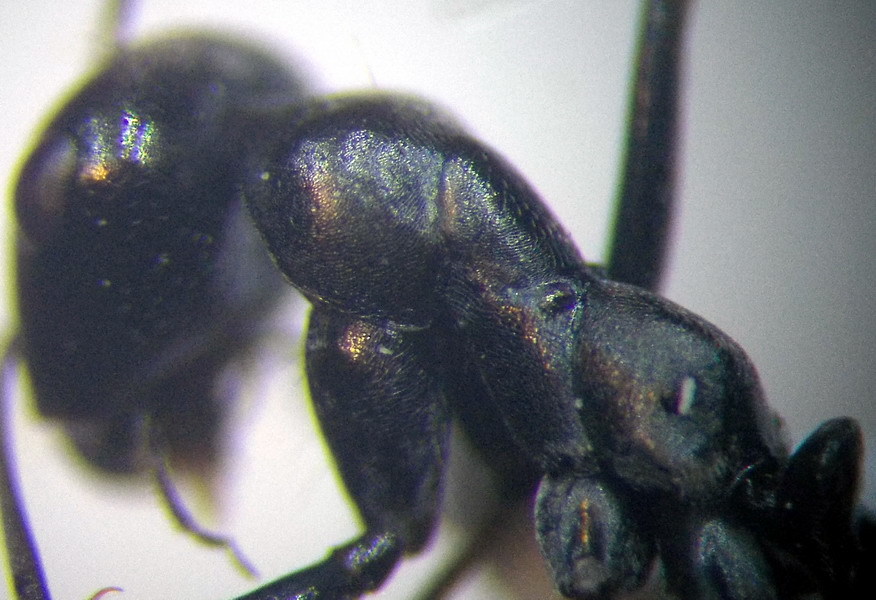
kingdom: Animalia
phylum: Arthropoda
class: Insecta
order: Hymenoptera
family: Formicidae
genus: Cataglyphis
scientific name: Cataglyphis aenescens
